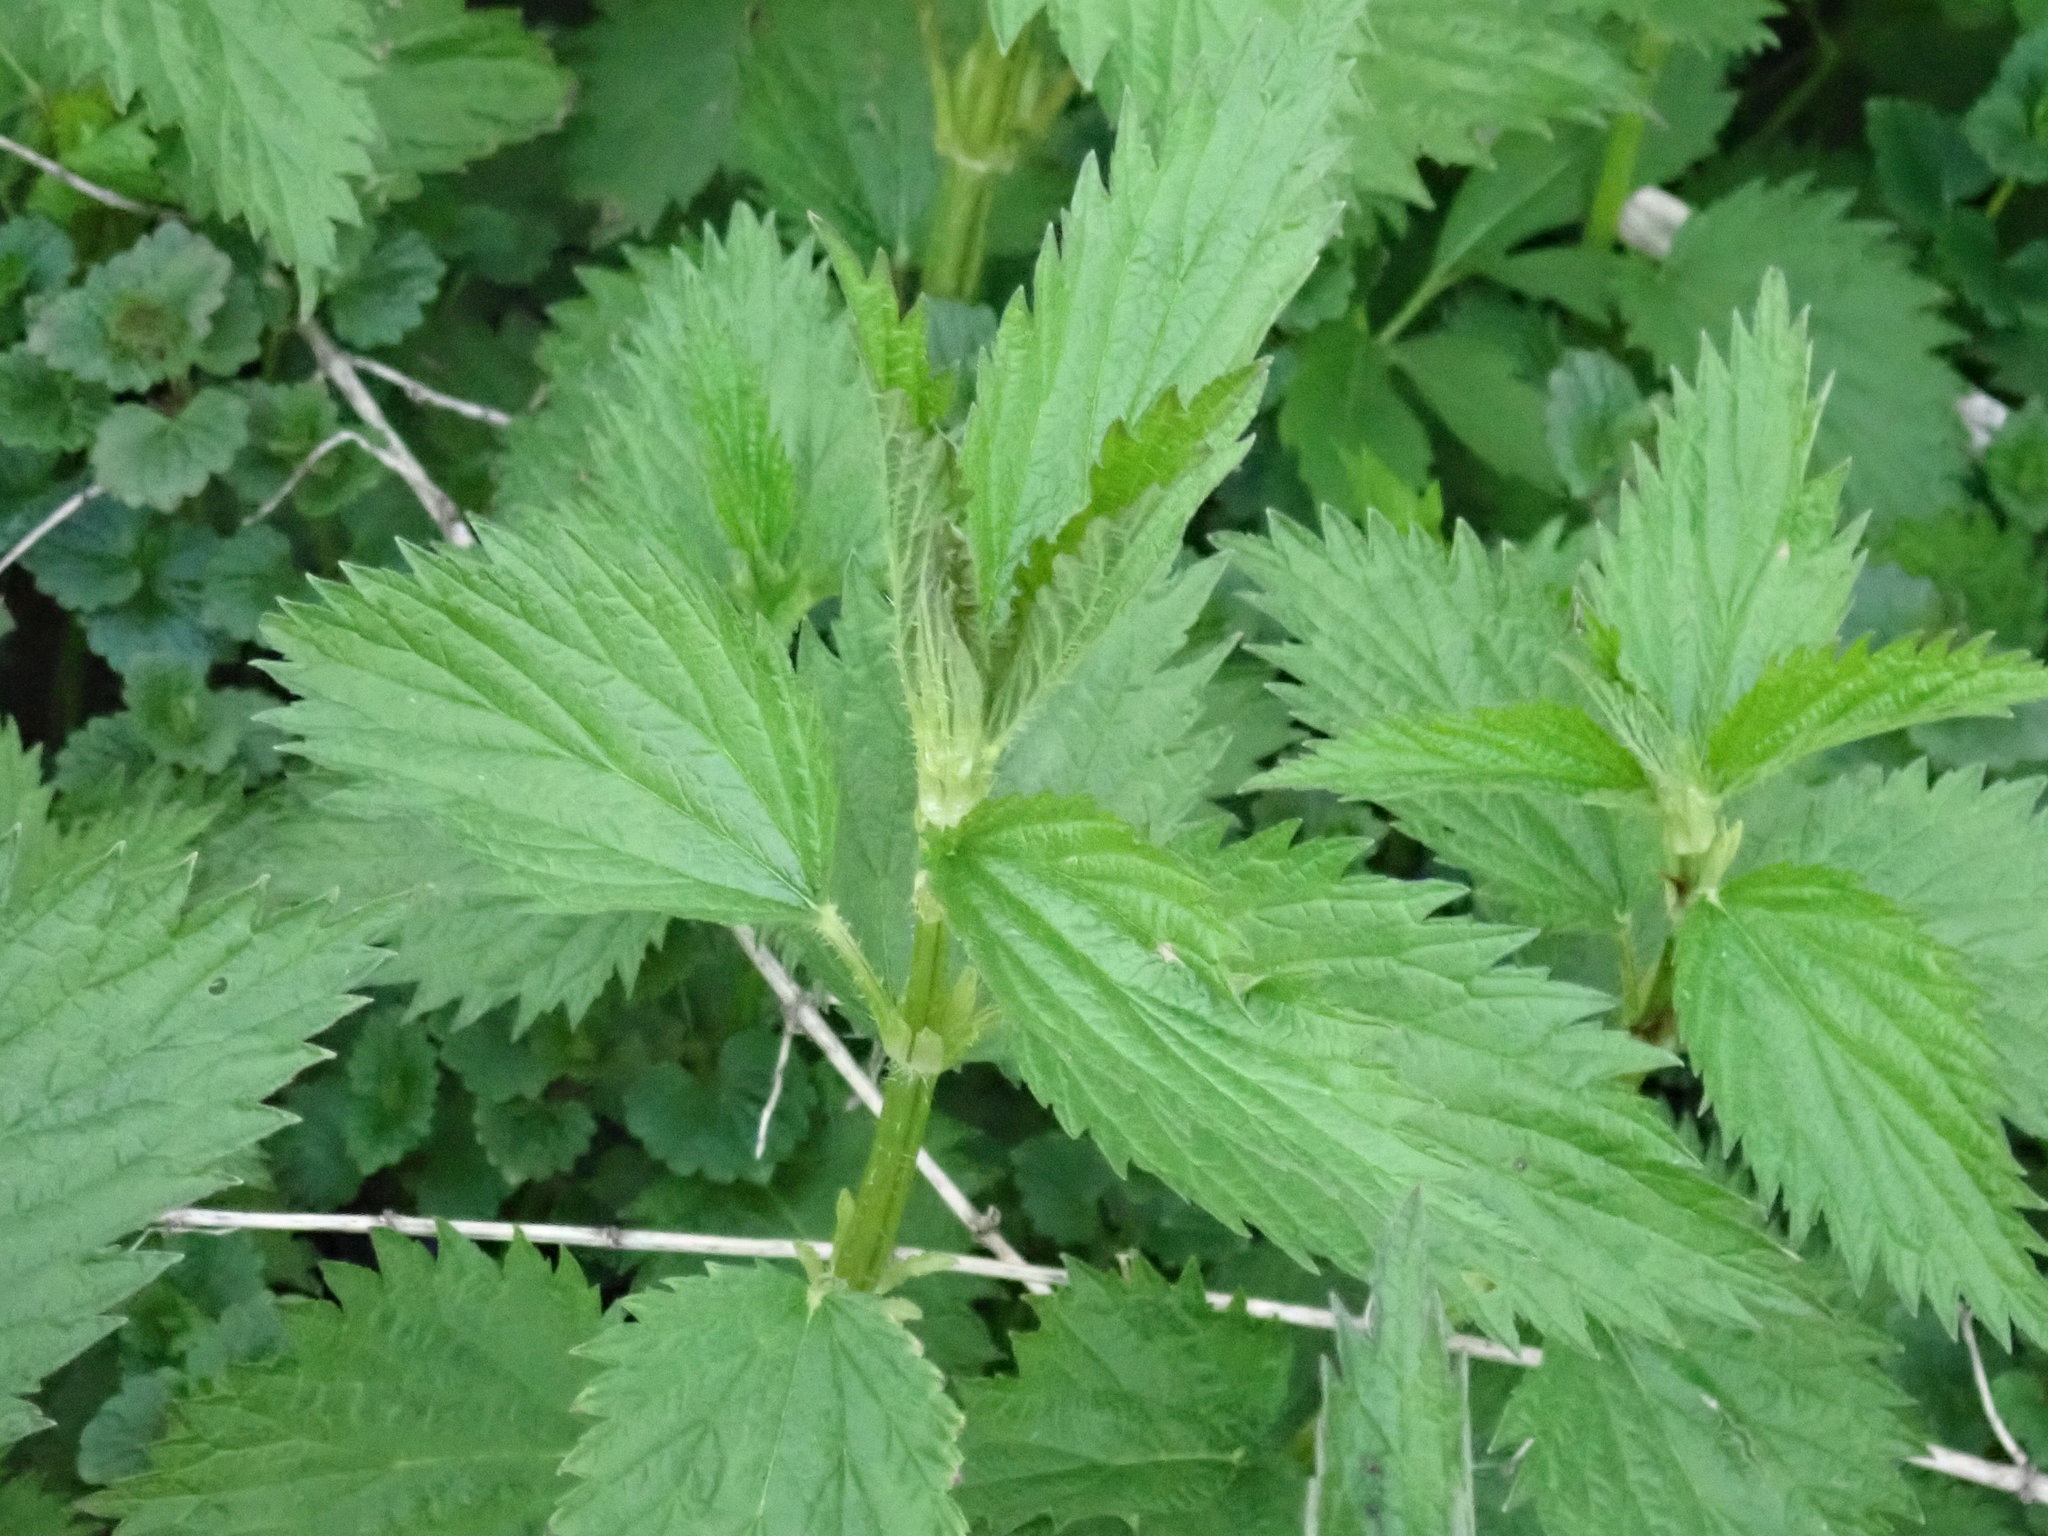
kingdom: Plantae
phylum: Tracheophyta
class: Magnoliopsida
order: Rosales
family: Urticaceae
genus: Urtica
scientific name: Urtica dioica
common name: Common nettle
